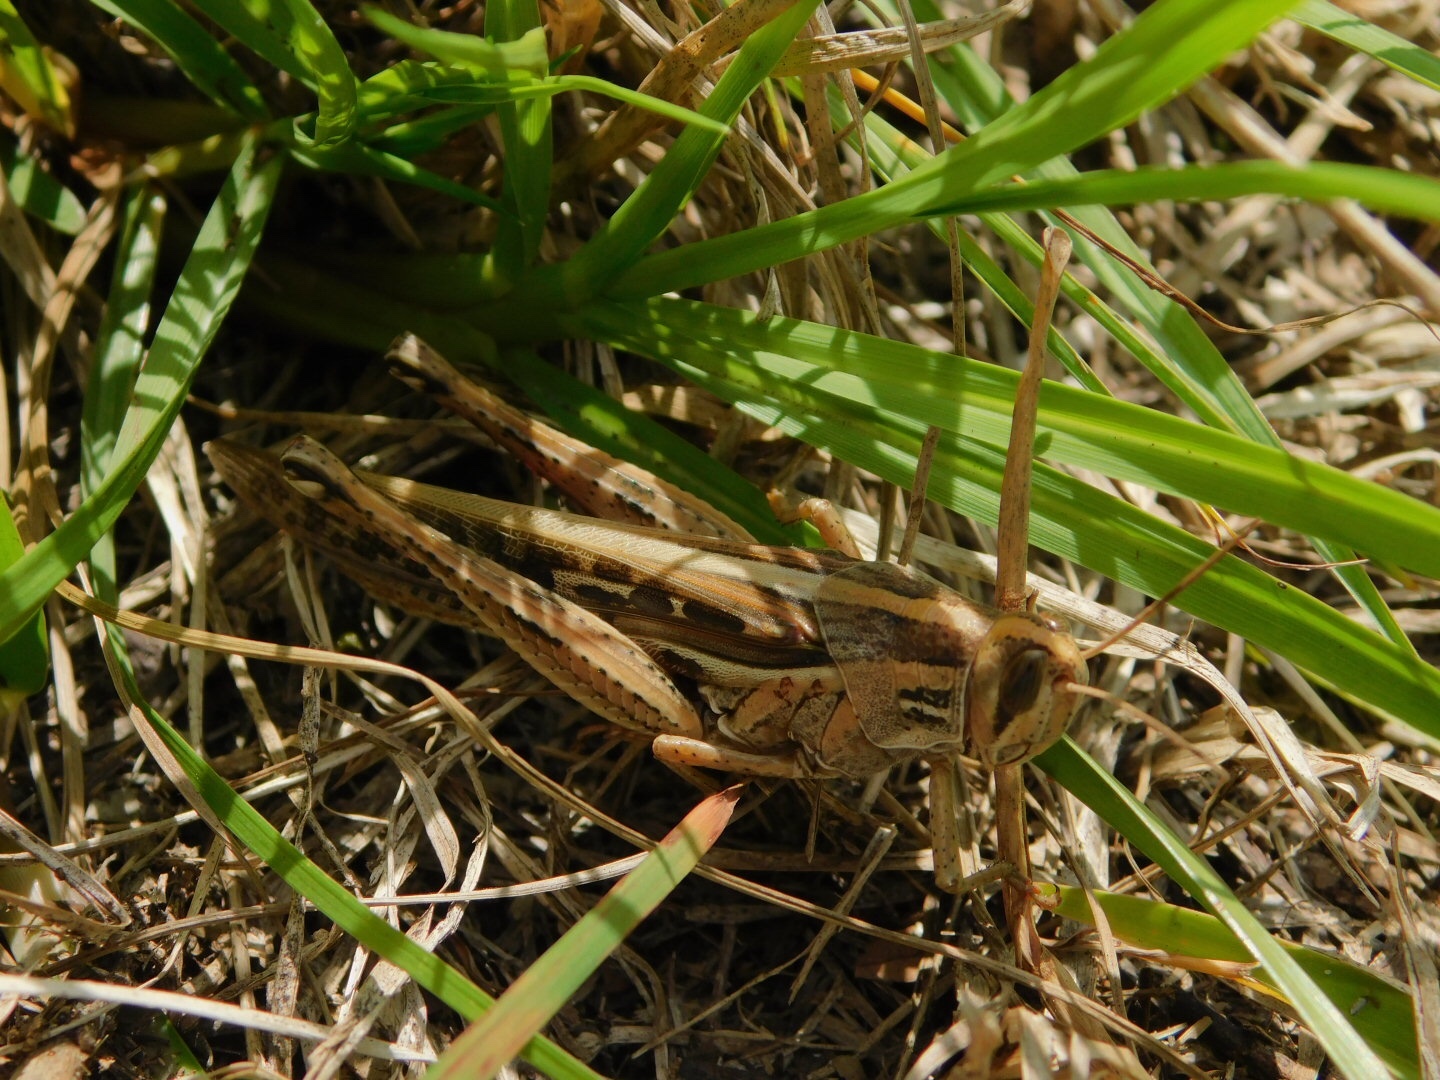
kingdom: Animalia
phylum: Arthropoda
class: Insecta
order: Orthoptera
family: Acrididae
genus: Schistocerca
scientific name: Schistocerca americana
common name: American bird locust
